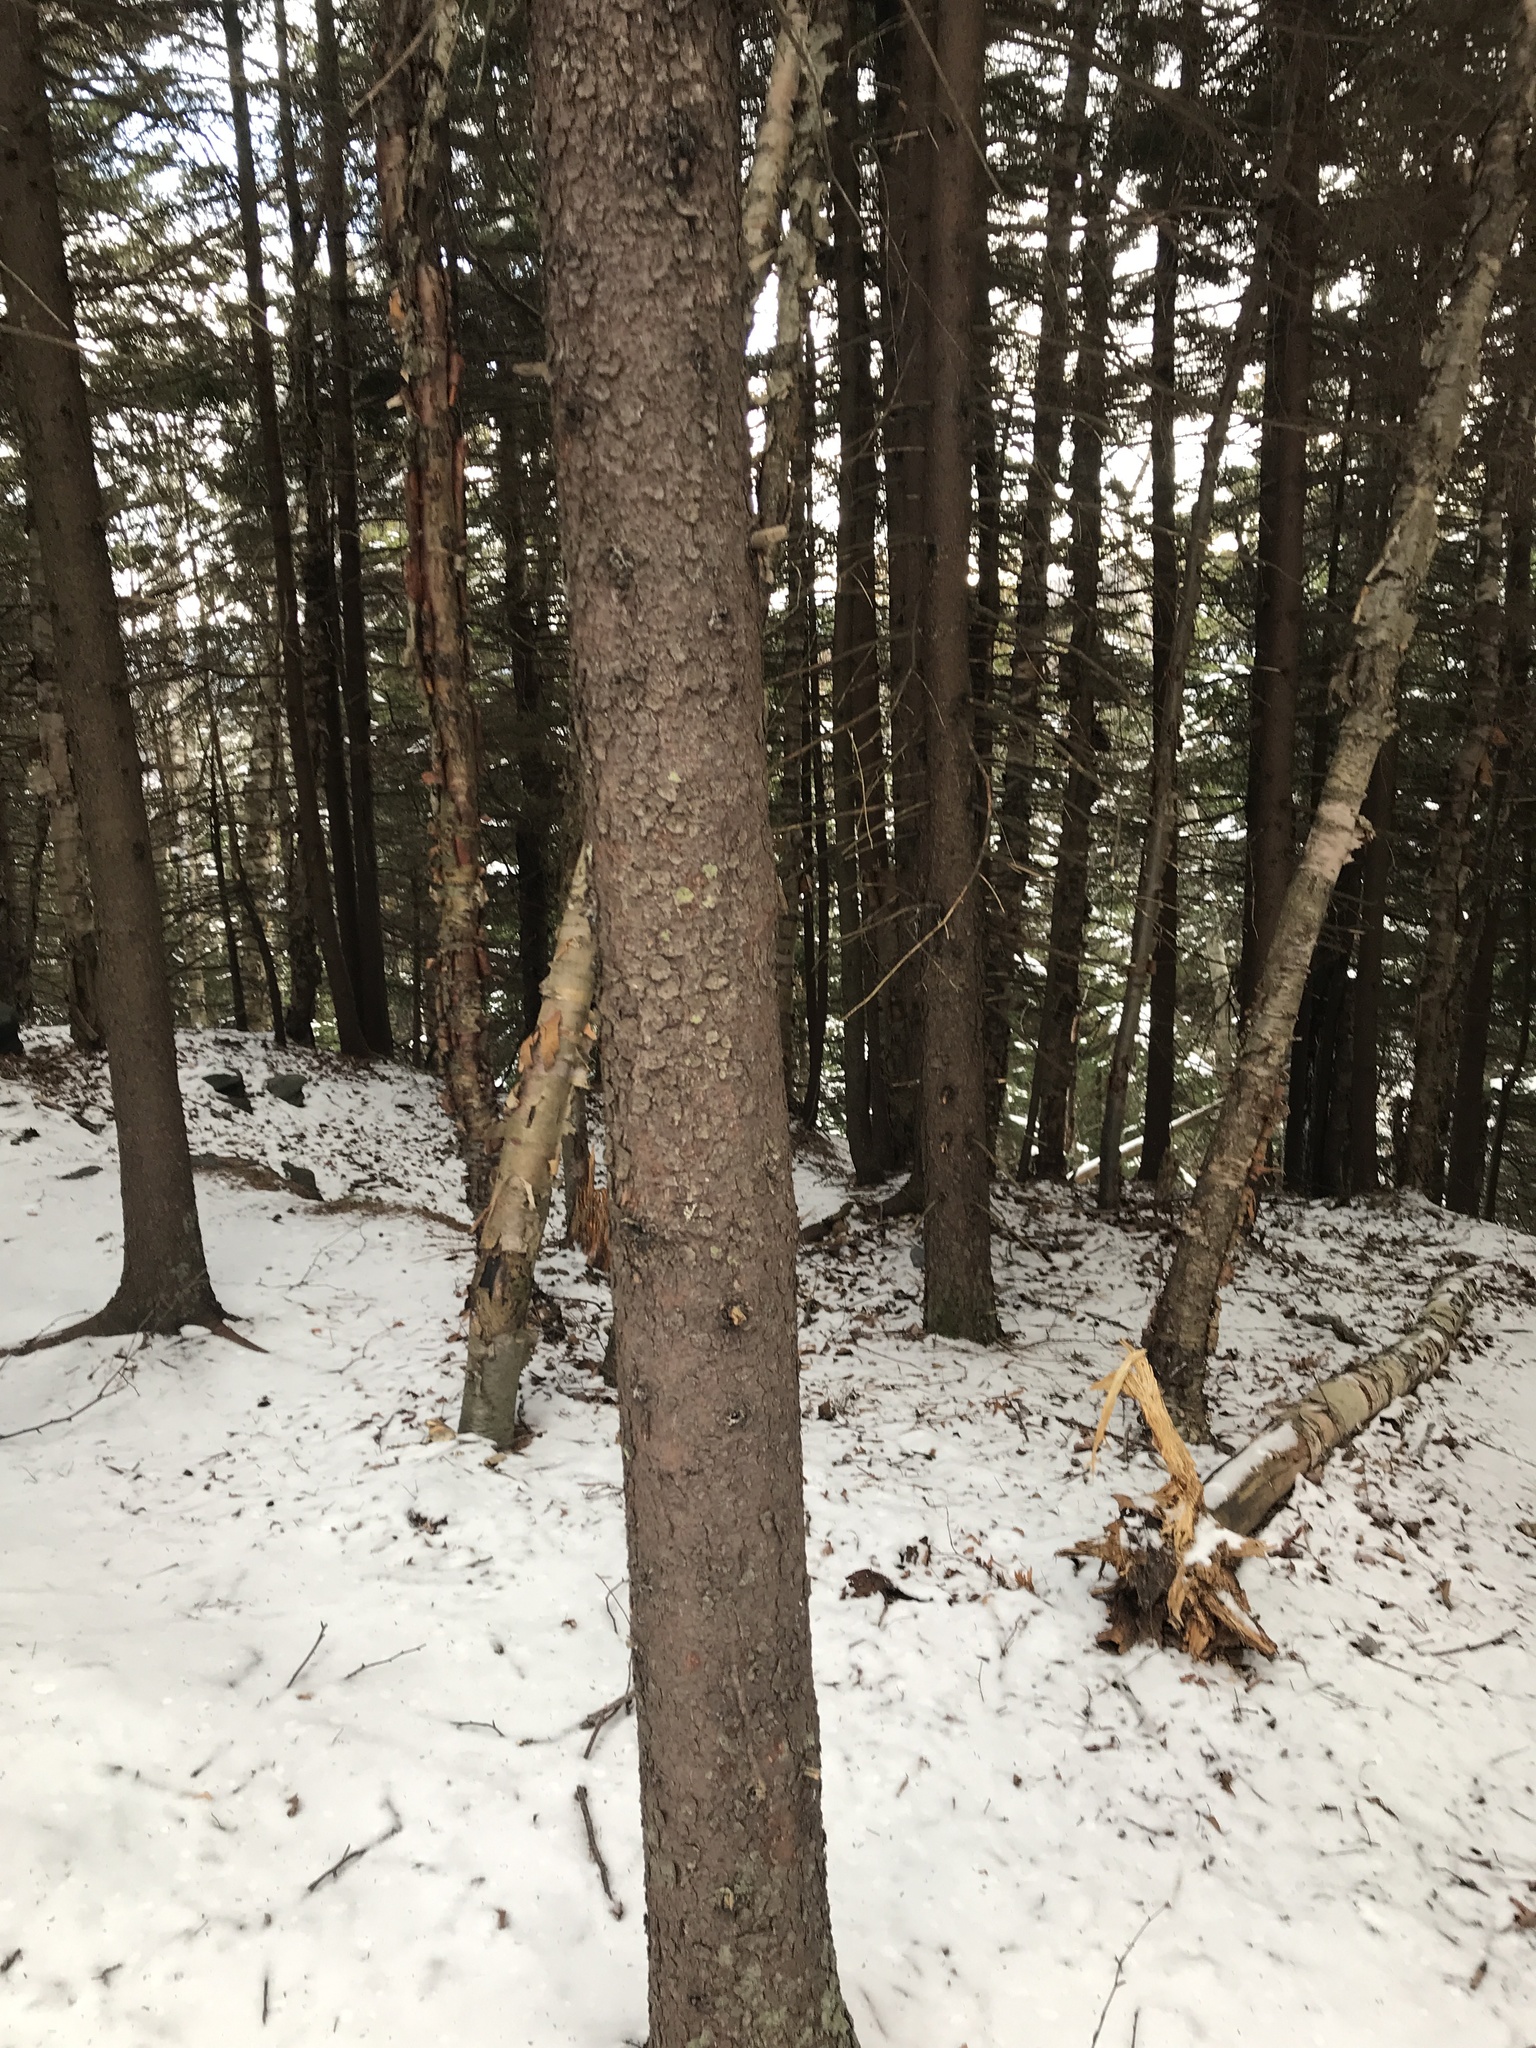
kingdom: Plantae
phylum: Tracheophyta
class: Pinopsida
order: Pinales
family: Pinaceae
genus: Picea
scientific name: Picea rubens
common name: Red spruce
